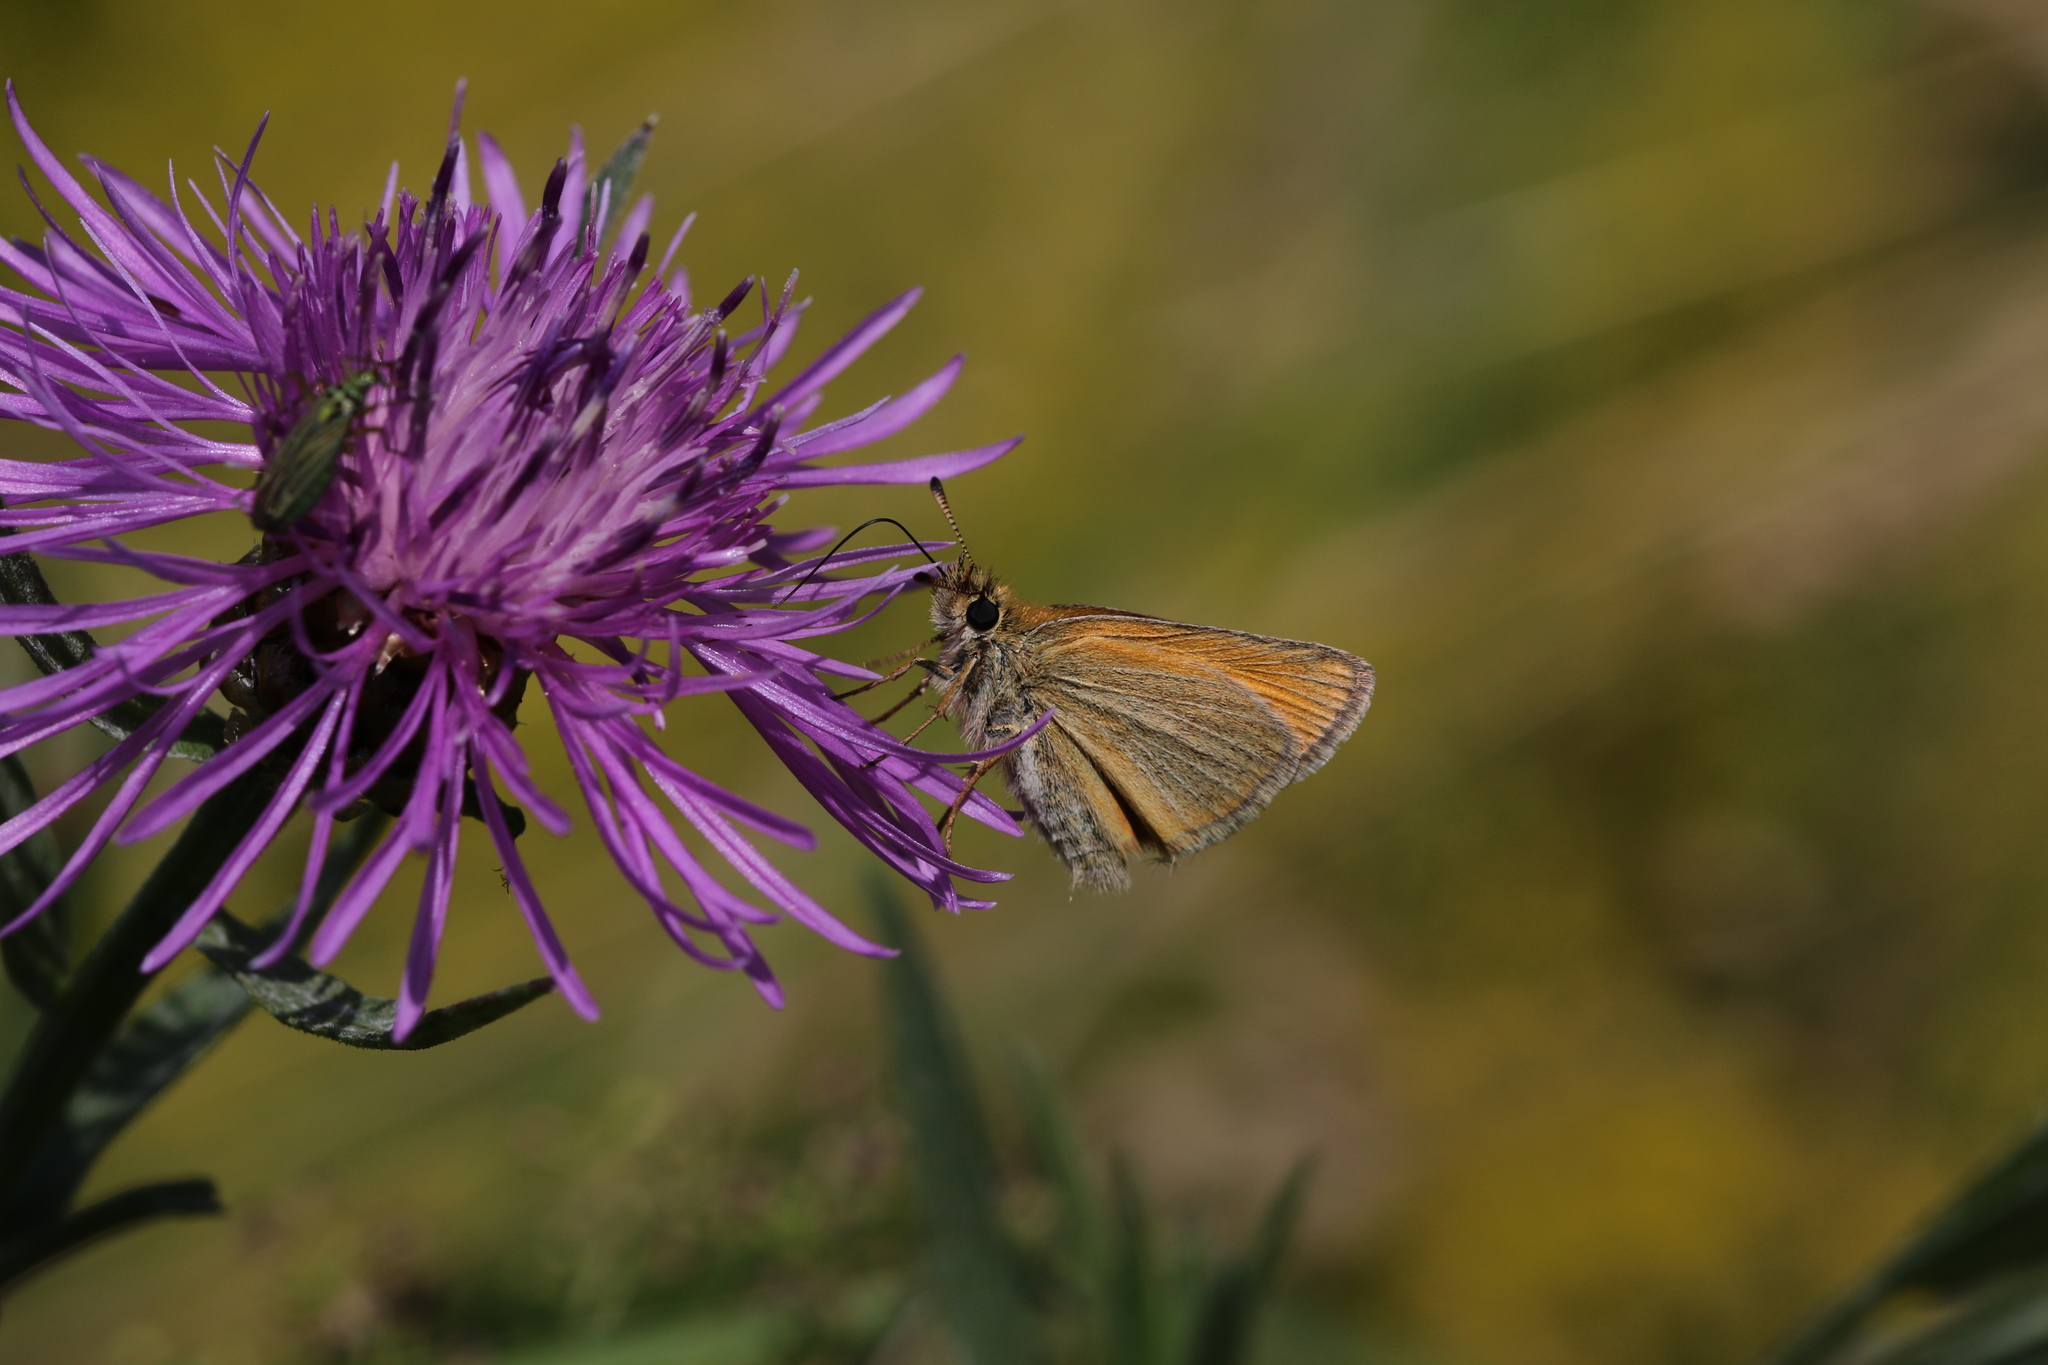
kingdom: Animalia
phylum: Arthropoda
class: Insecta
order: Lepidoptera
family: Hesperiidae
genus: Thymelicus
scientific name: Thymelicus lineola
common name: Essex skipper
